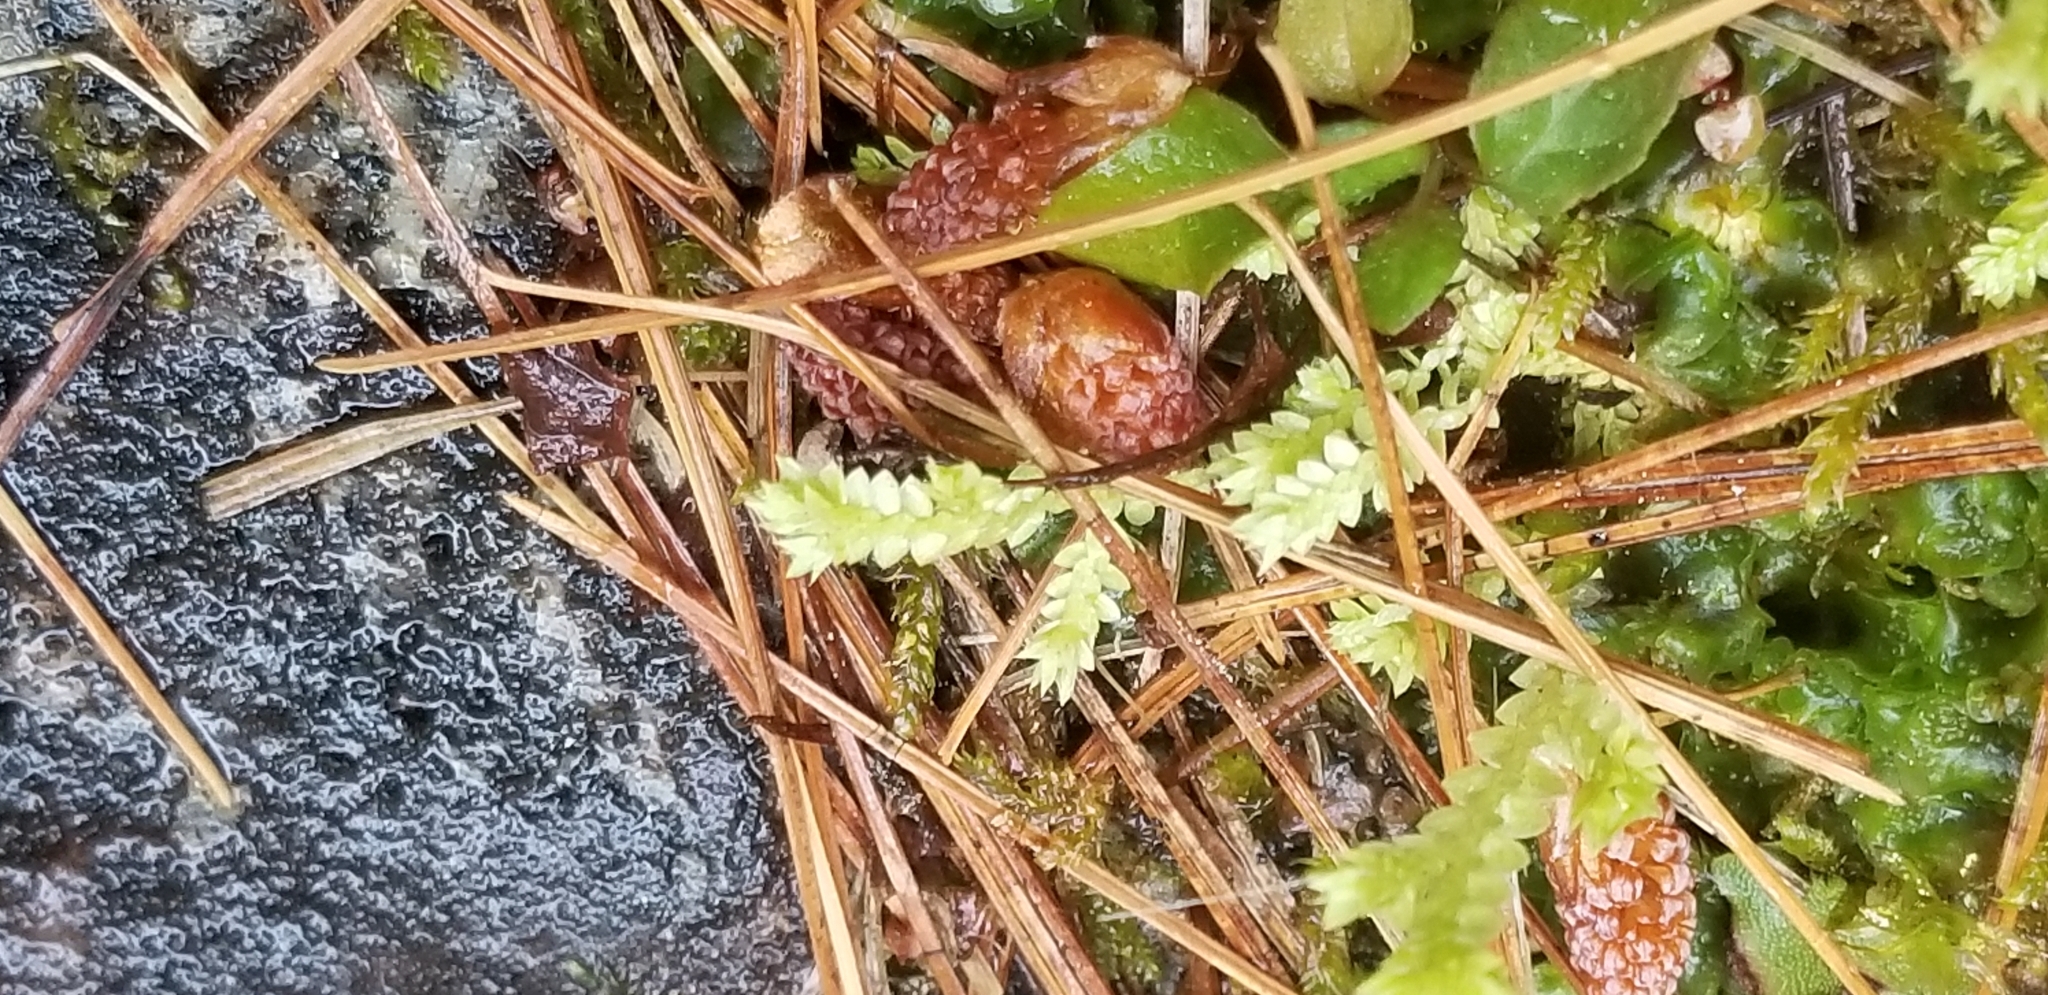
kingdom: Plantae
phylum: Tracheophyta
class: Lycopodiopsida
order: Selaginellales
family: Selaginellaceae
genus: Selaginella
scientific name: Selaginella apoda
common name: Creeping spikemoss
